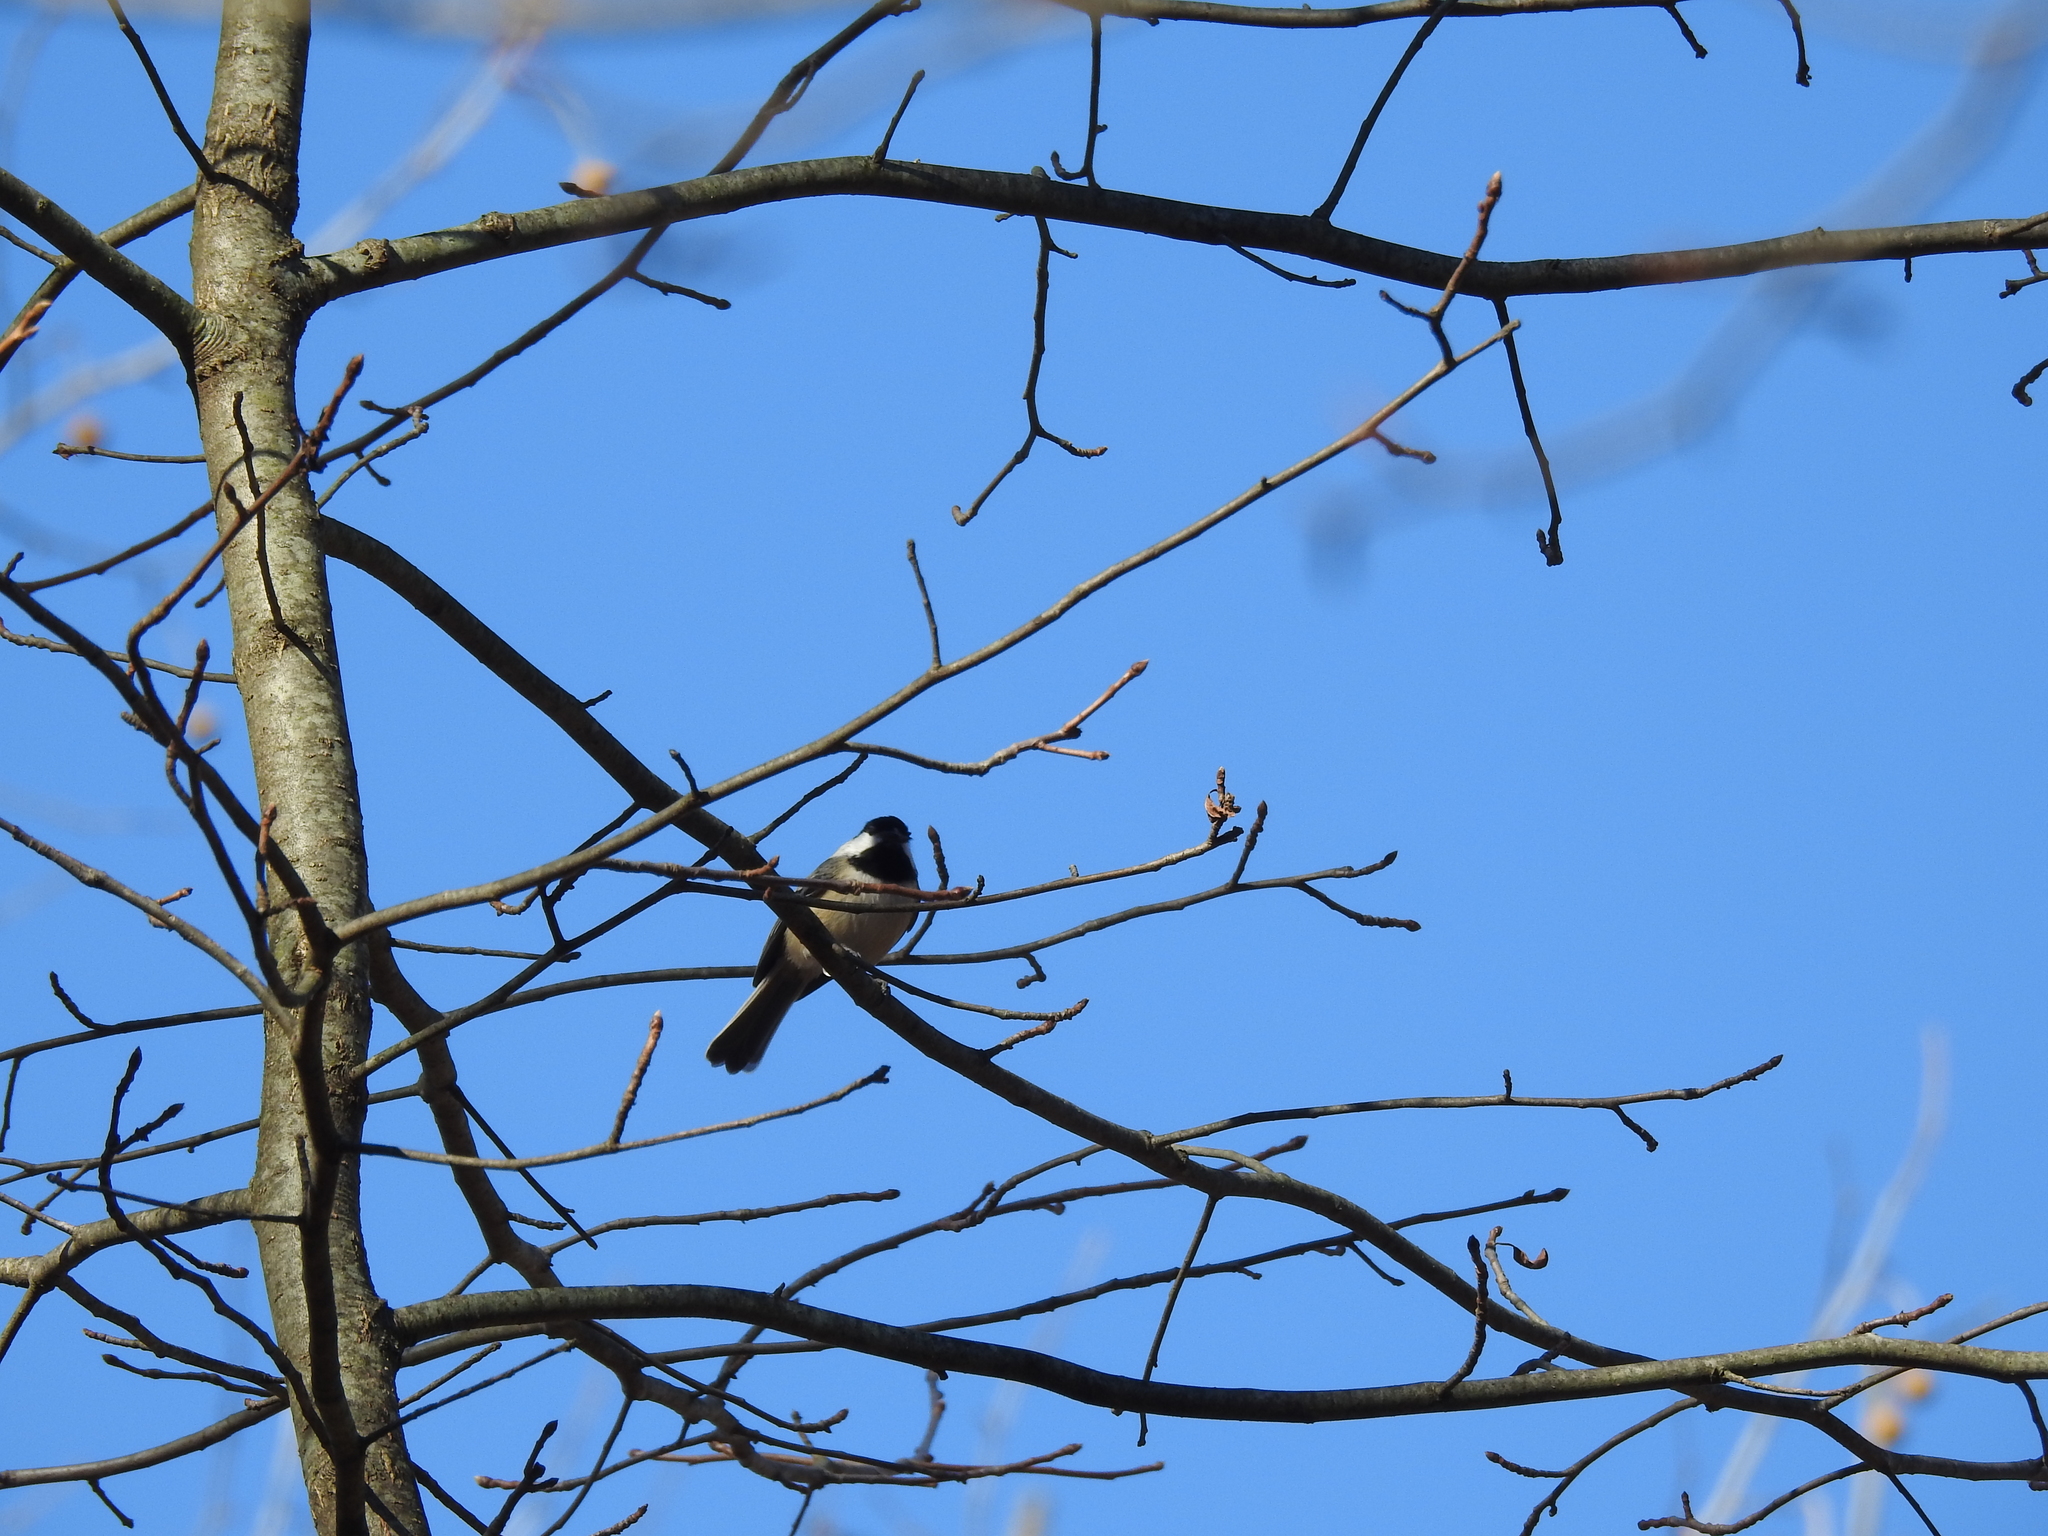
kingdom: Animalia
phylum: Chordata
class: Aves
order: Passeriformes
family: Paridae
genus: Poecile
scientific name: Poecile atricapillus
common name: Black-capped chickadee
